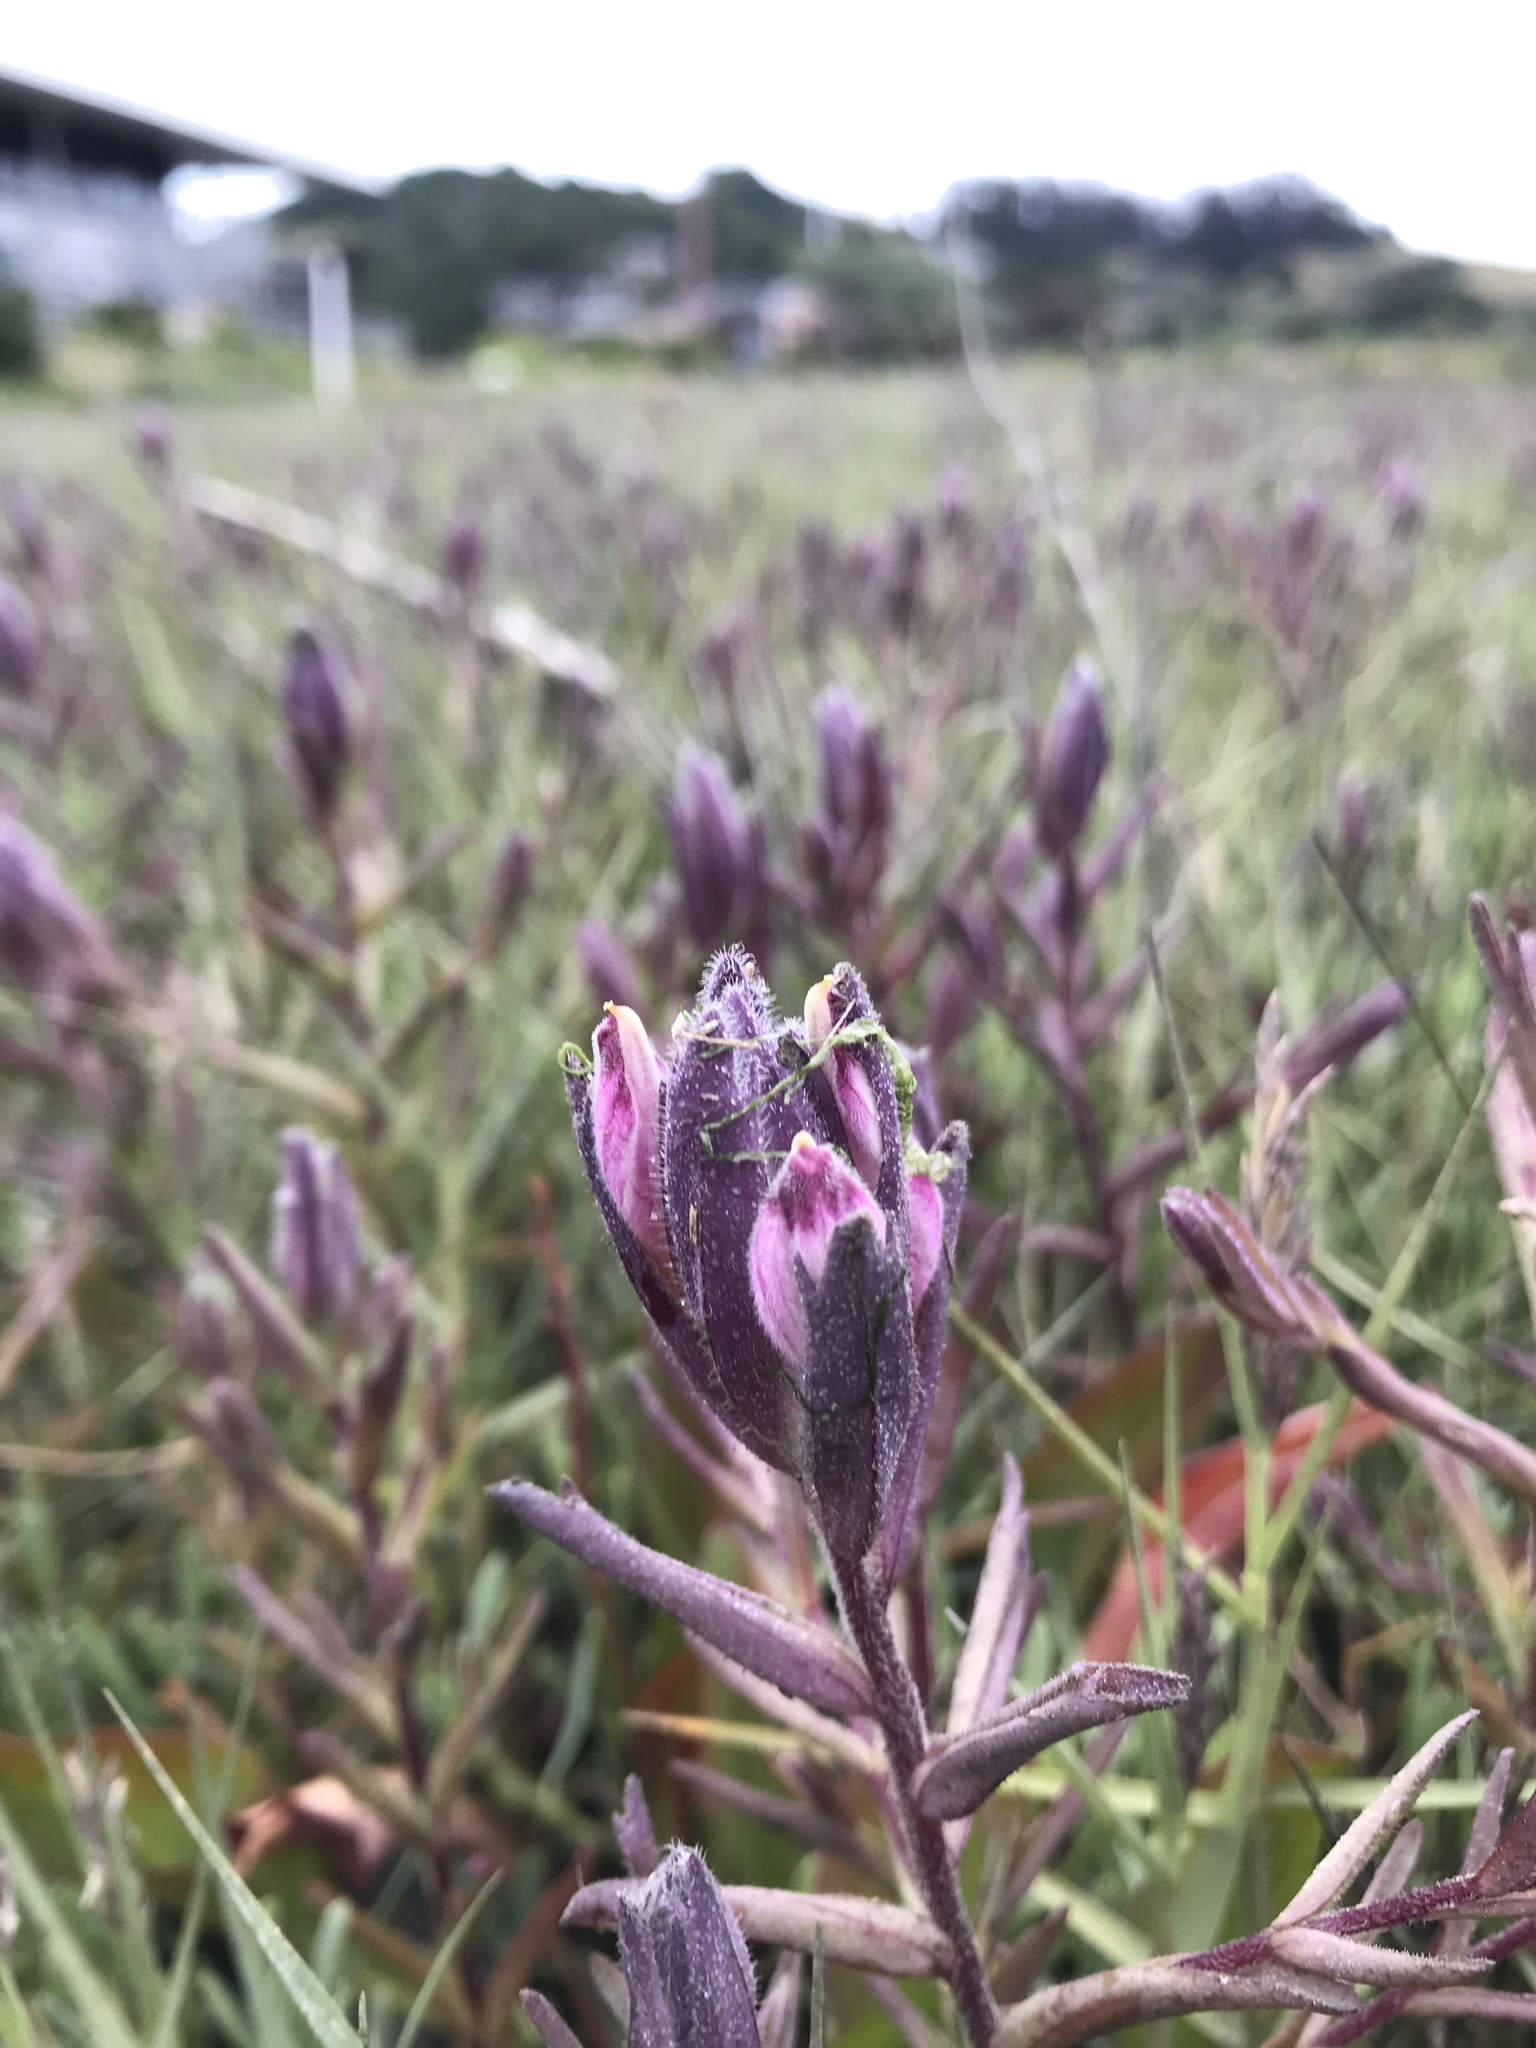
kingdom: Plantae
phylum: Tracheophyta
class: Magnoliopsida
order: Lamiales
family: Orobanchaceae
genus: Chloropyron
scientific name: Chloropyron maritimum
